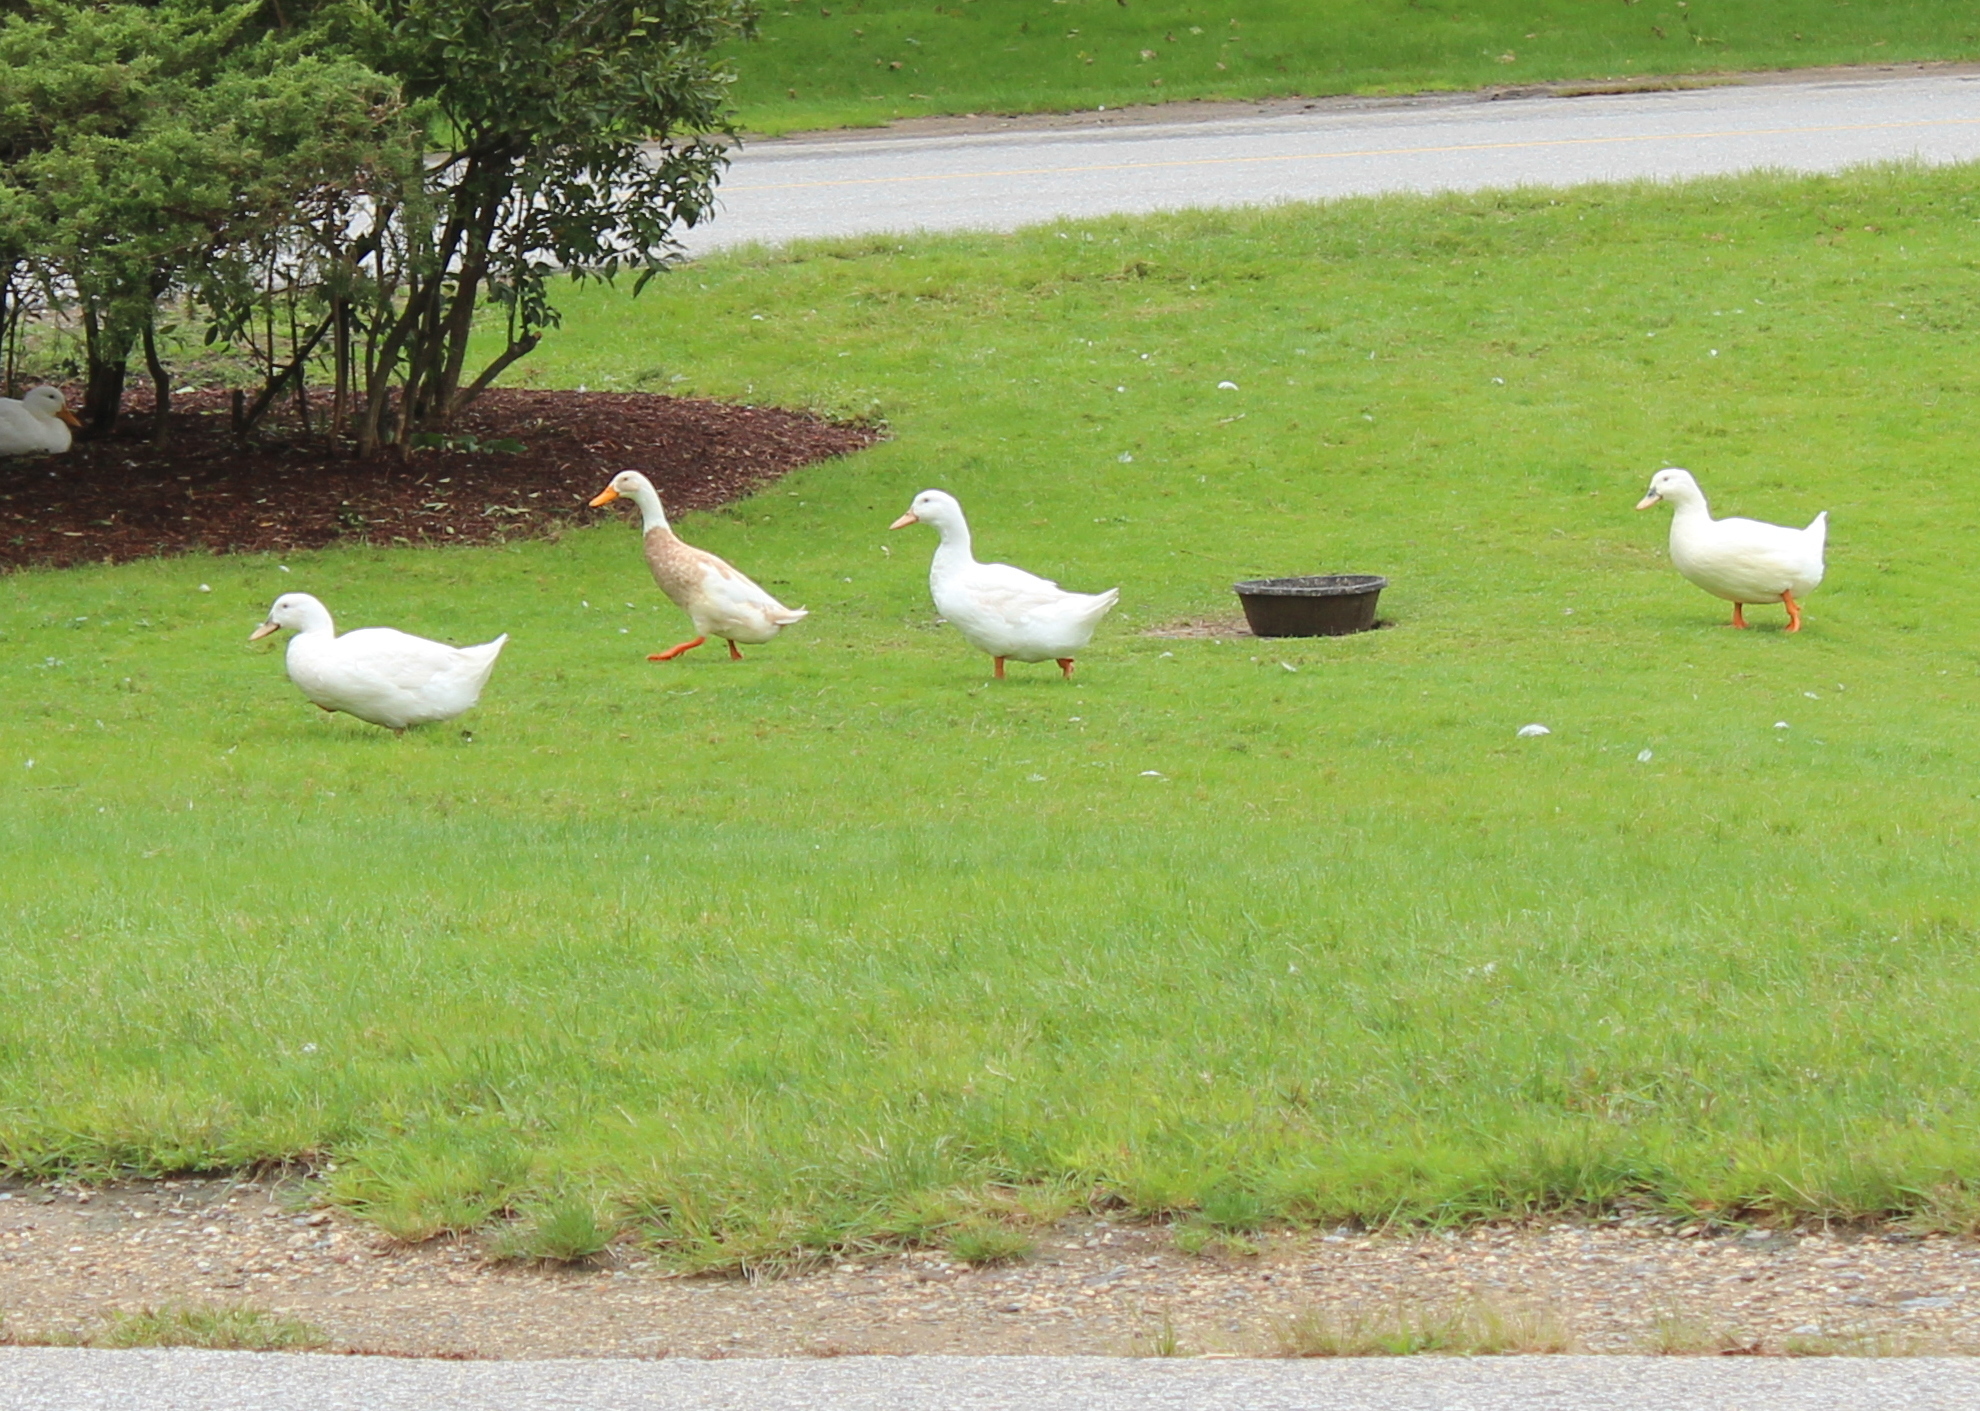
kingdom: Animalia
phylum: Chordata
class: Aves
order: Anseriformes
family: Anatidae
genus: Anas
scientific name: Anas platyrhynchos
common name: Mallard
